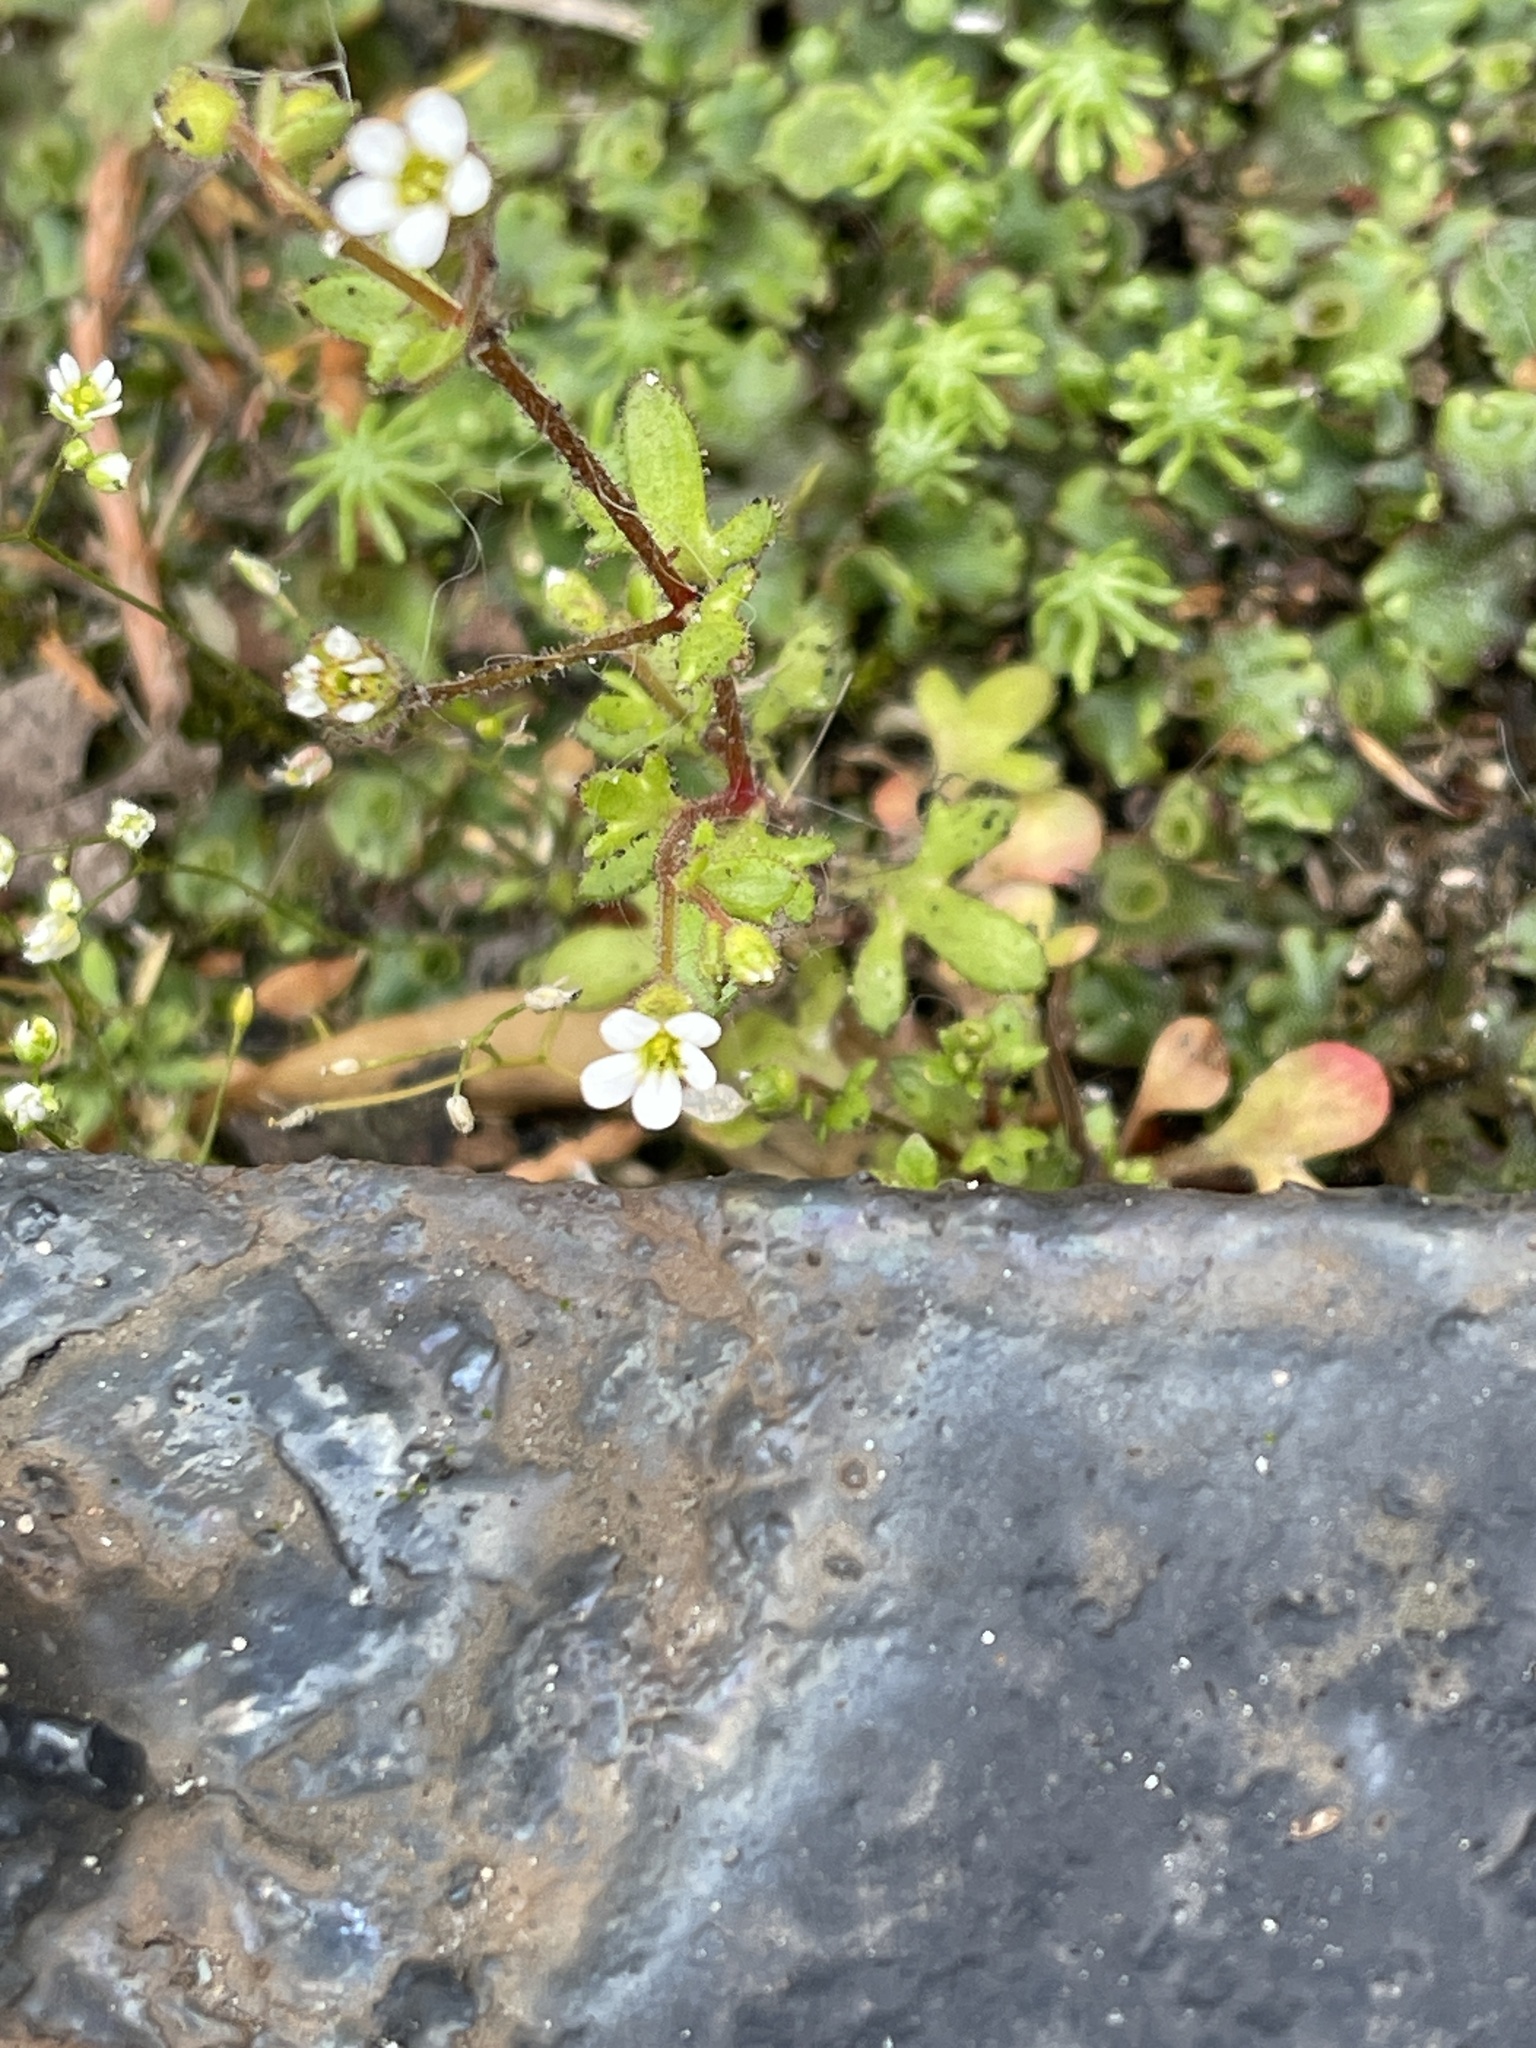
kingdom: Plantae
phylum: Tracheophyta
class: Magnoliopsida
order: Saxifragales
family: Saxifragaceae
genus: Saxifraga
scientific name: Saxifraga tridactylites
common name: Rue-leaved saxifrage
